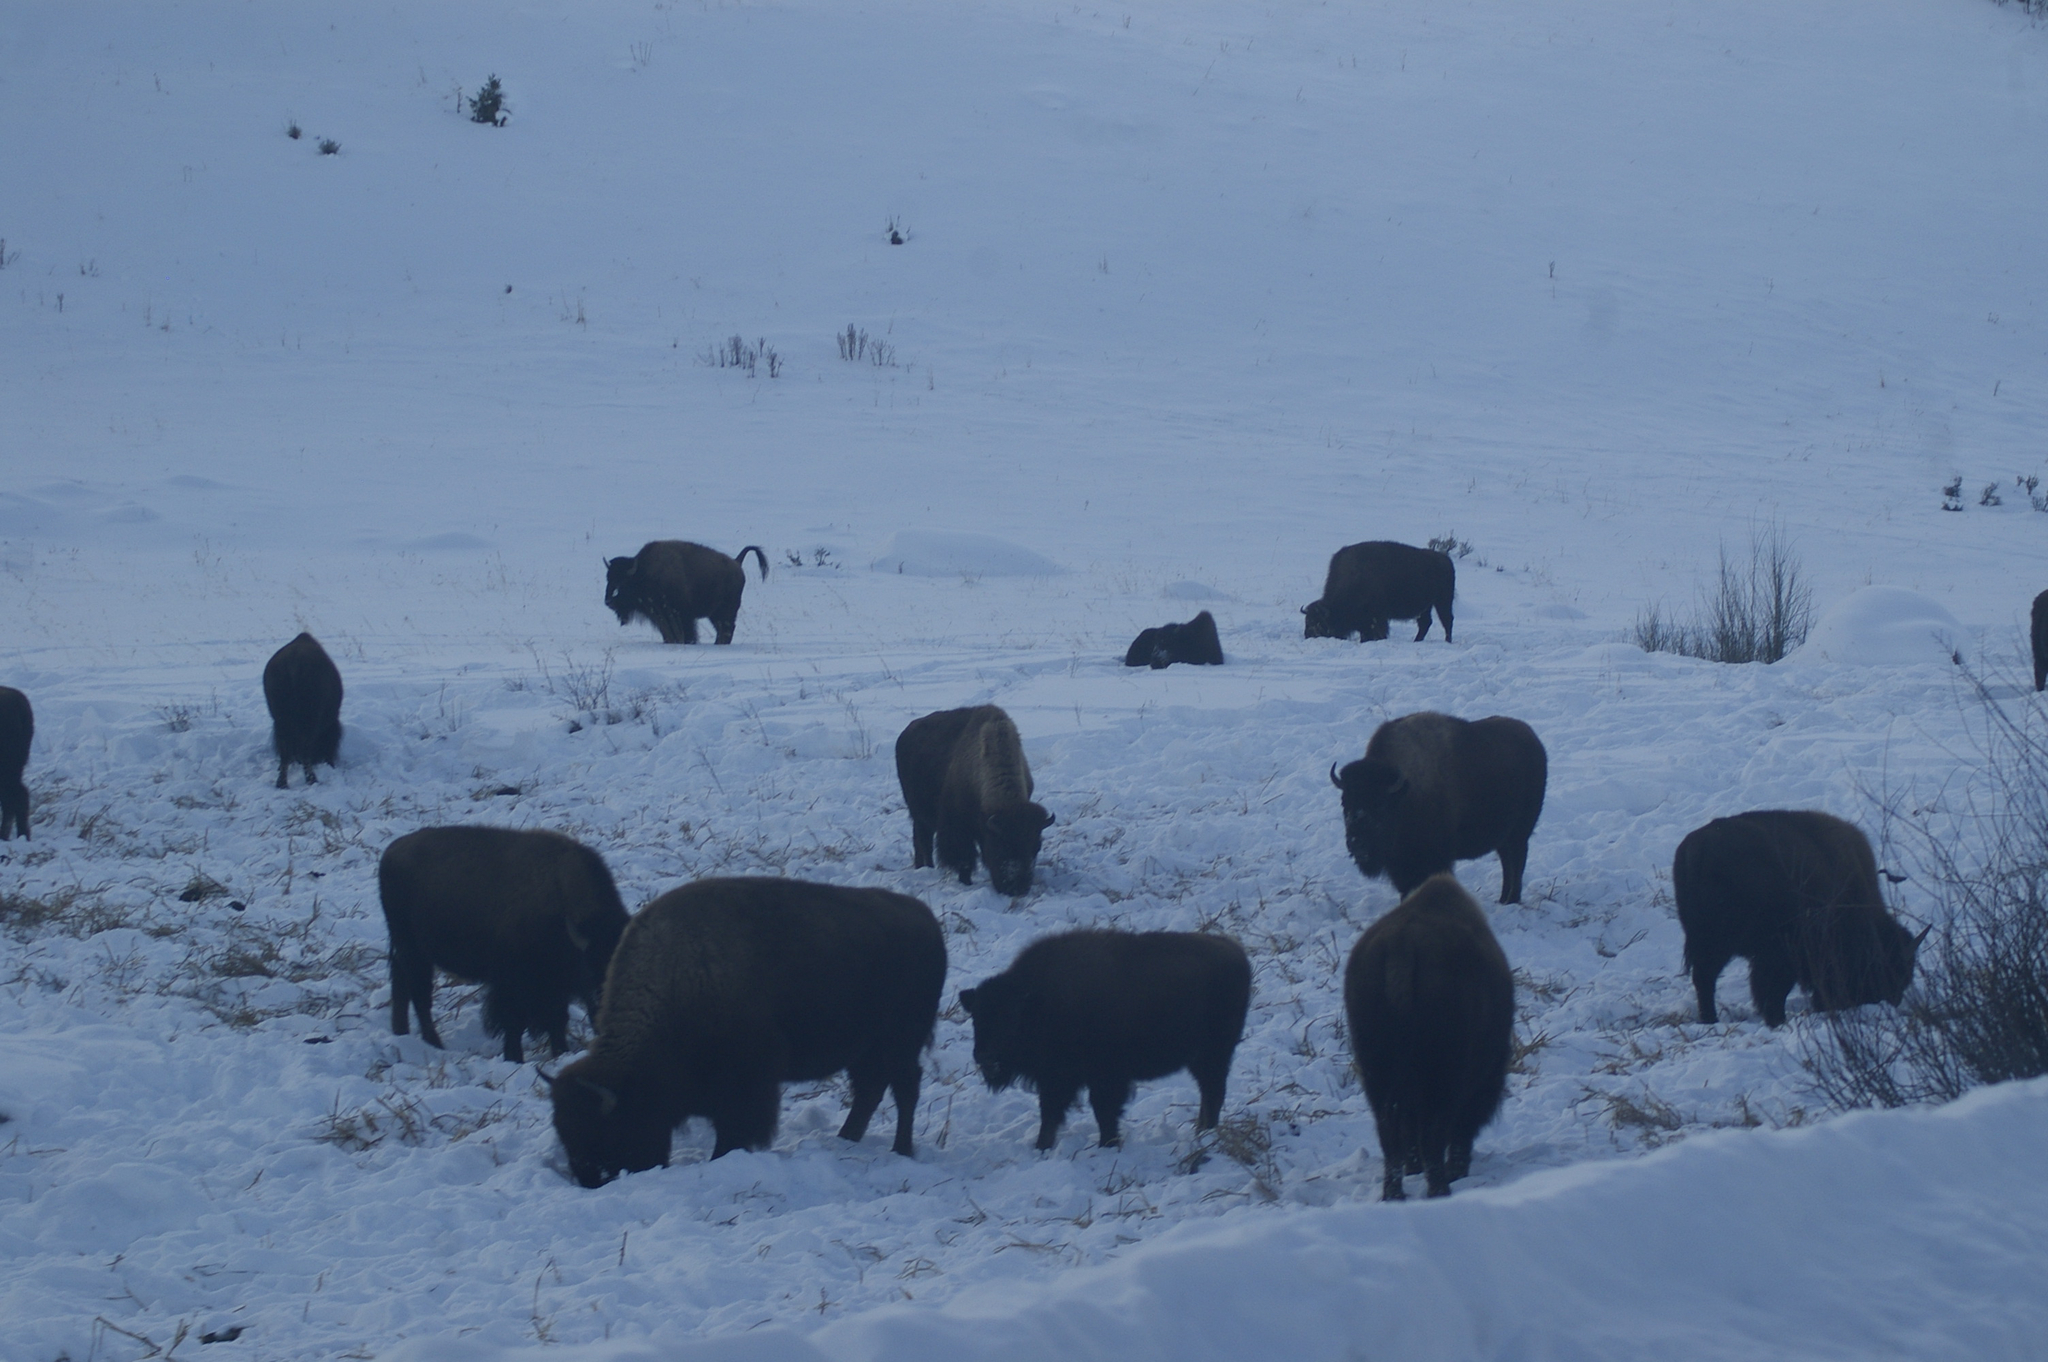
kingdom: Animalia
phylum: Chordata
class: Mammalia
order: Artiodactyla
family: Bovidae
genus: Bison
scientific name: Bison bison
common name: American bison
